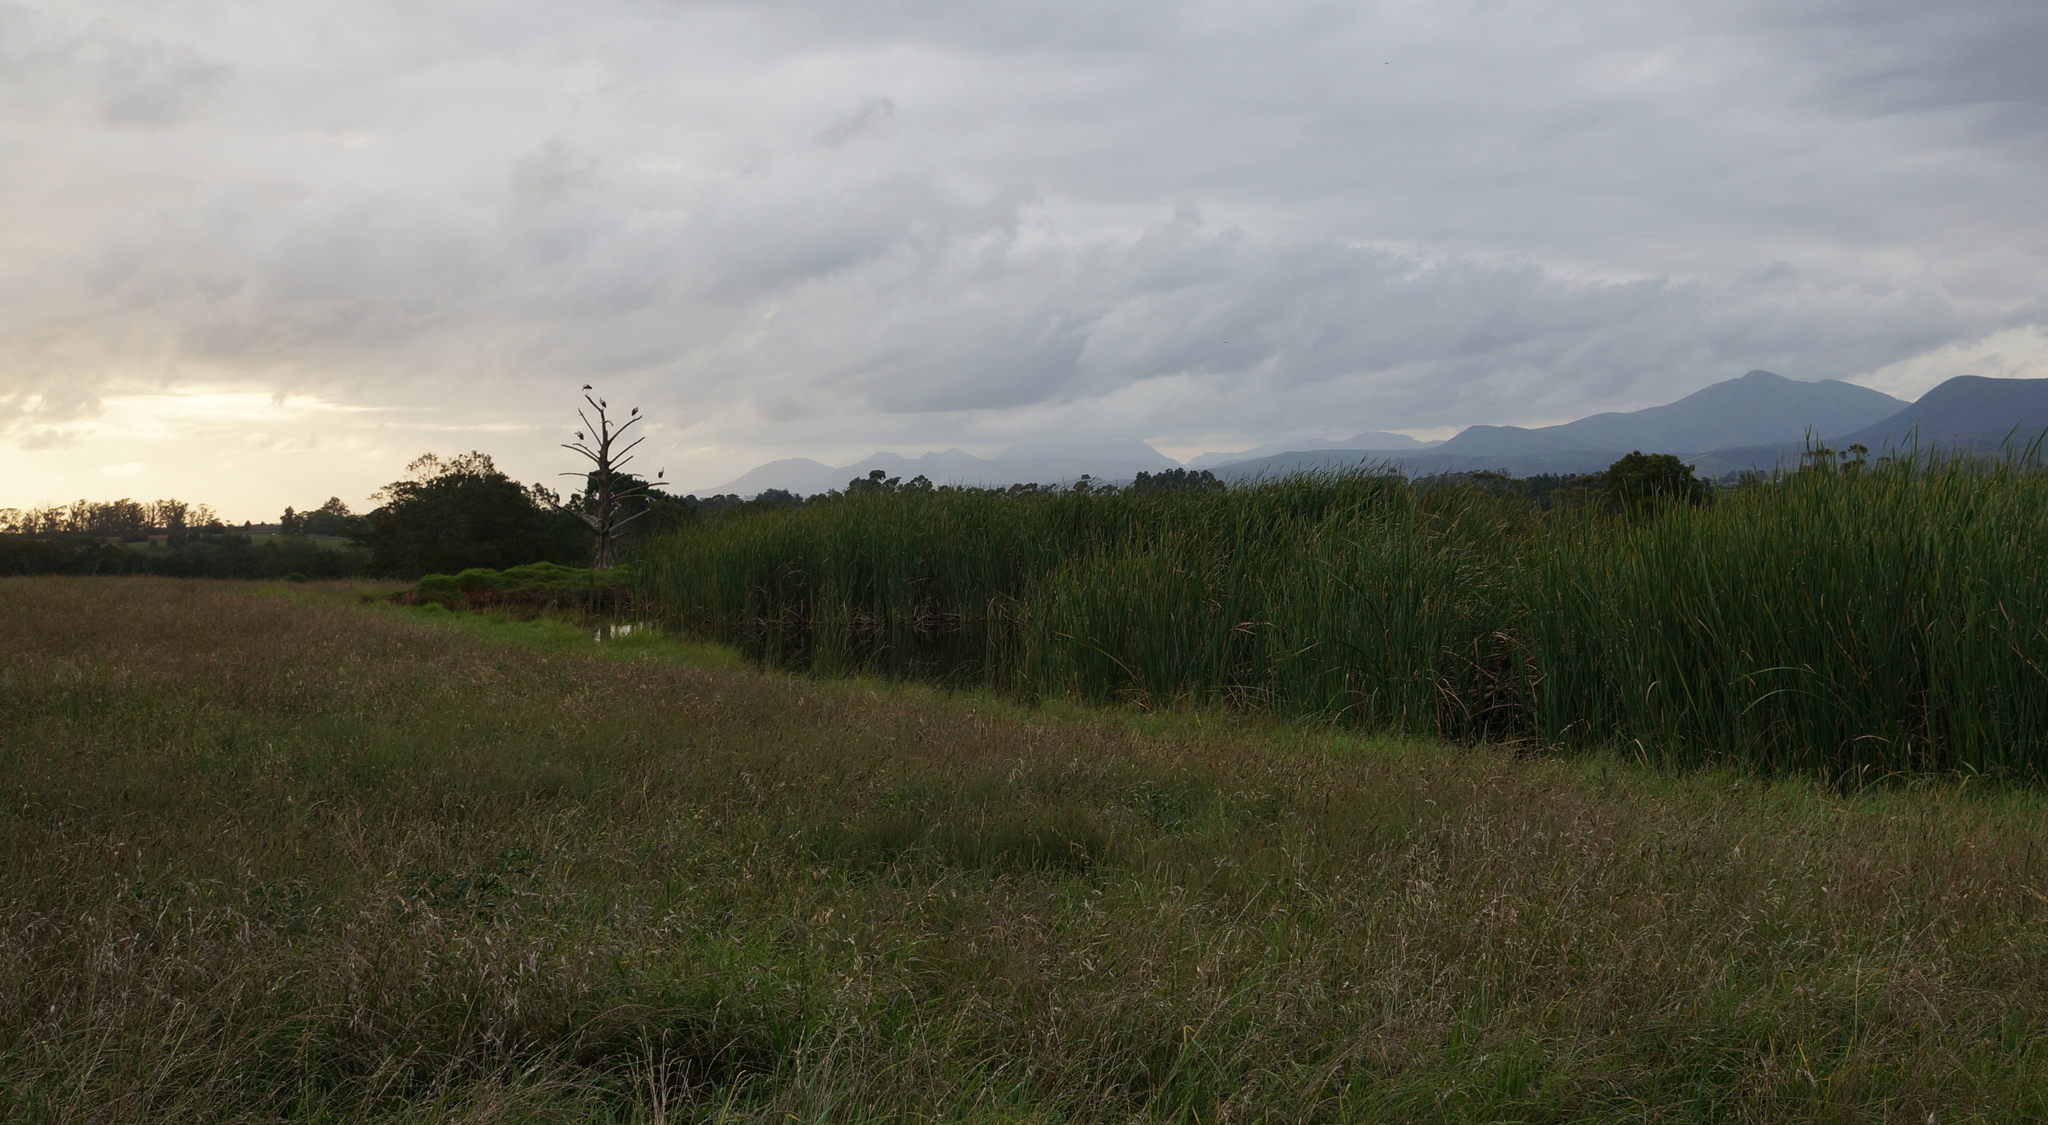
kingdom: Animalia
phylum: Chordata
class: Aves
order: Ciconiiformes
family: Ciconiidae
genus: Ciconia
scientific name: Ciconia ciconia
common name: White stork
